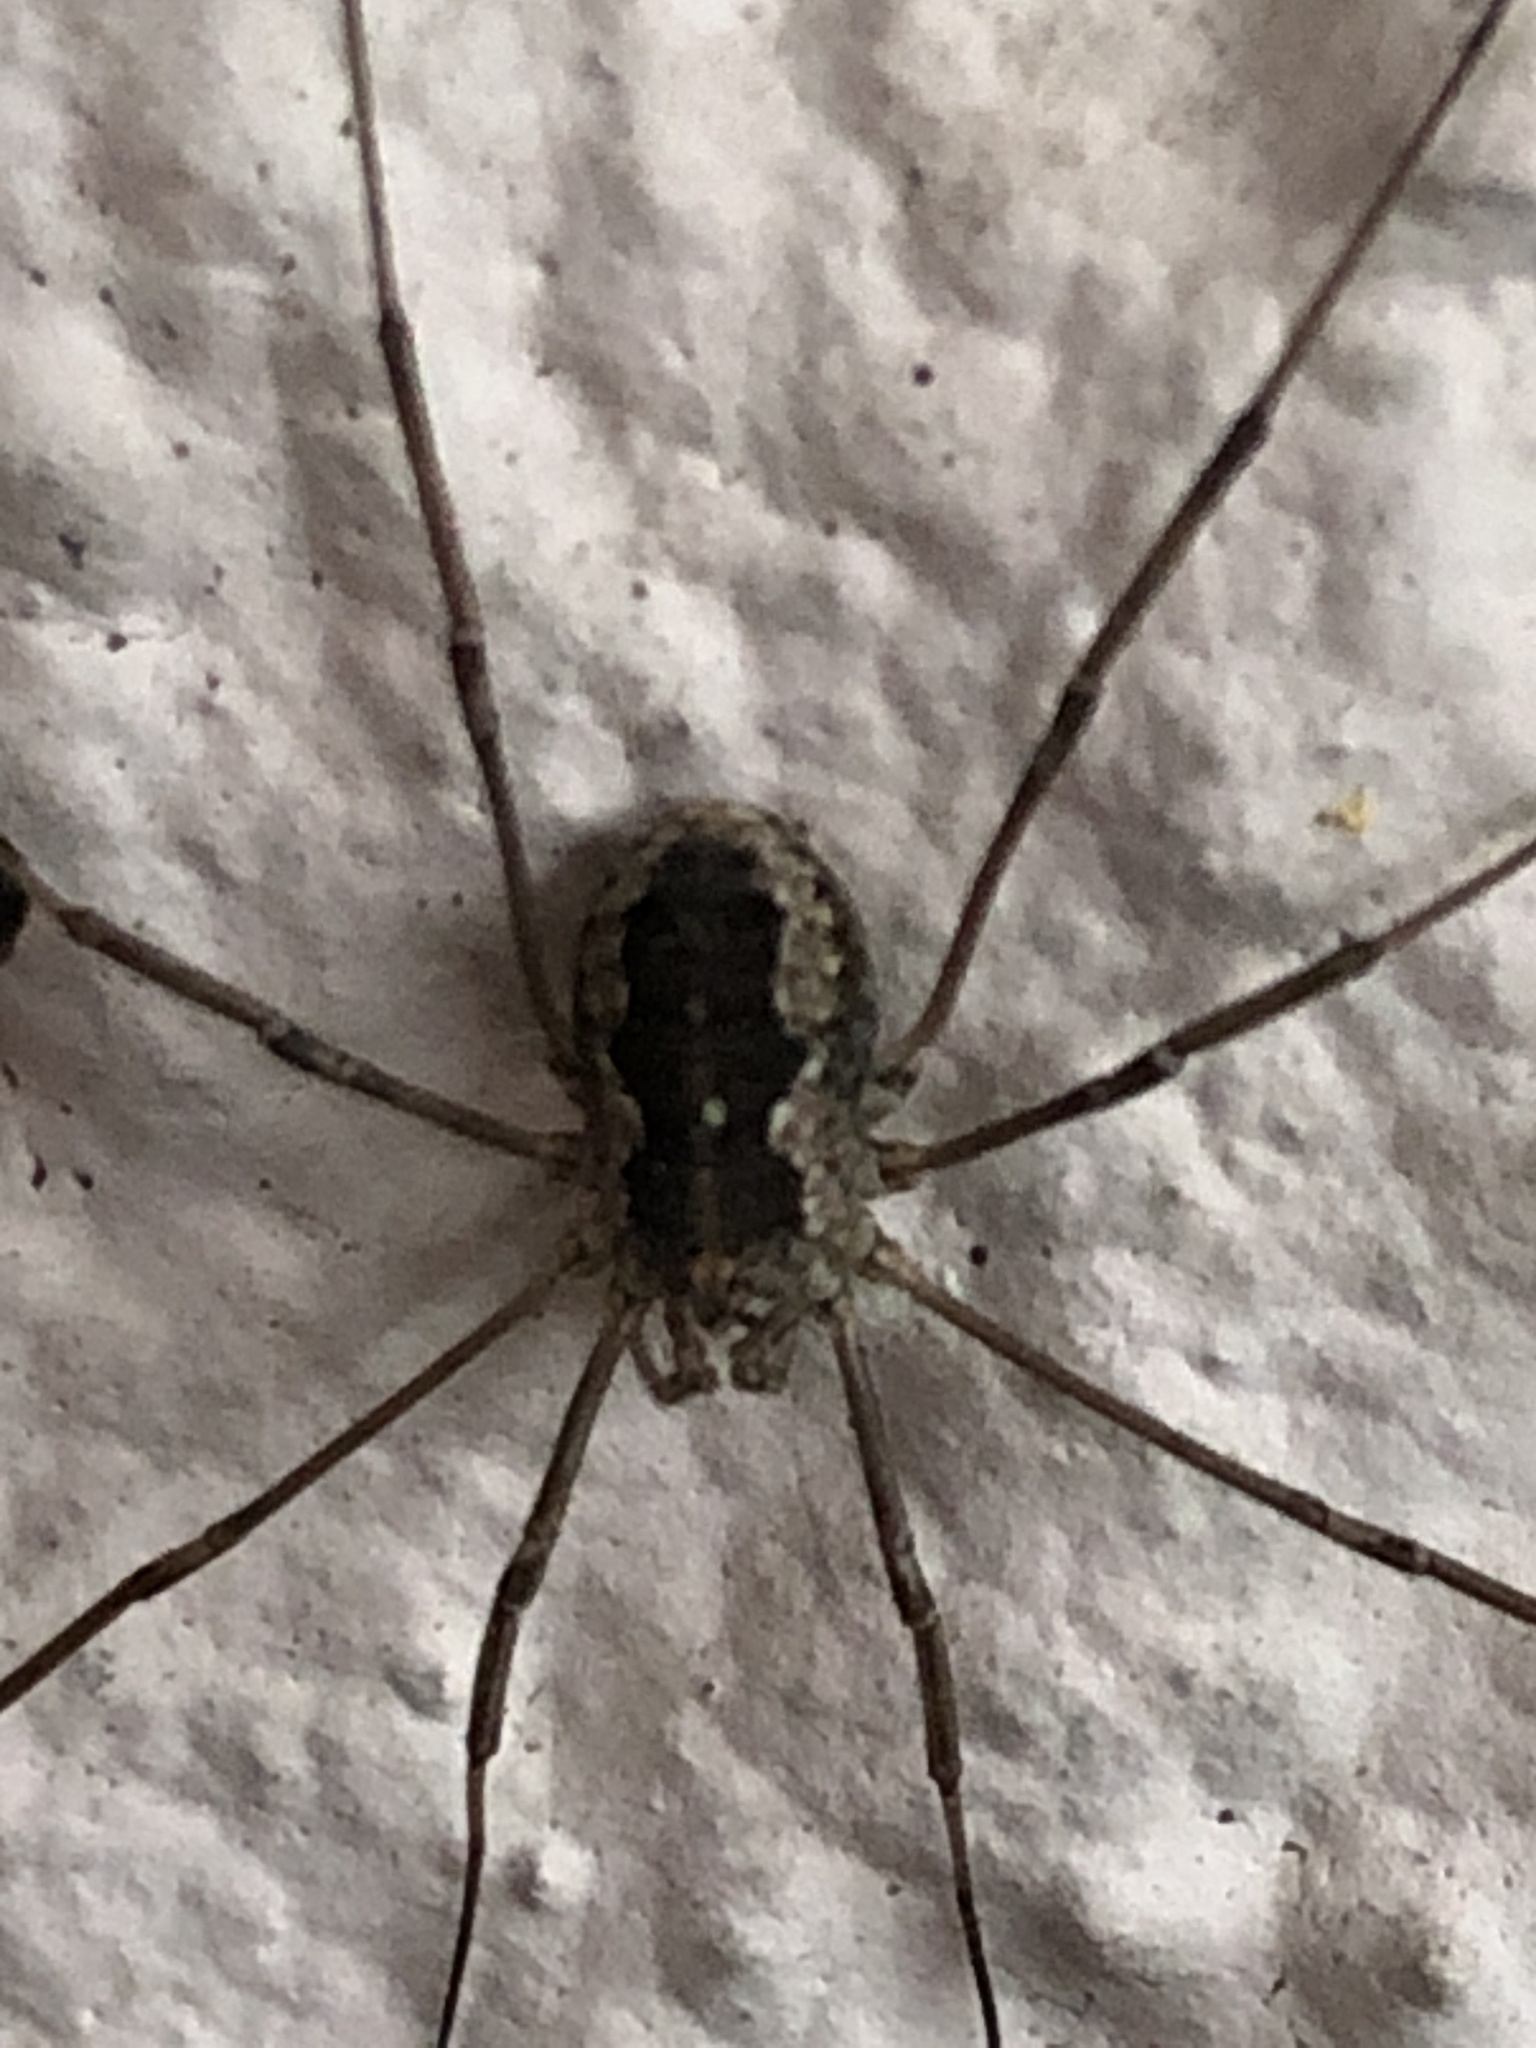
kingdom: Animalia
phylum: Arthropoda
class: Arachnida
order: Opiliones
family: Phalangiidae
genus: Phalangium
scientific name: Phalangium opilio
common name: Daddy longleg
